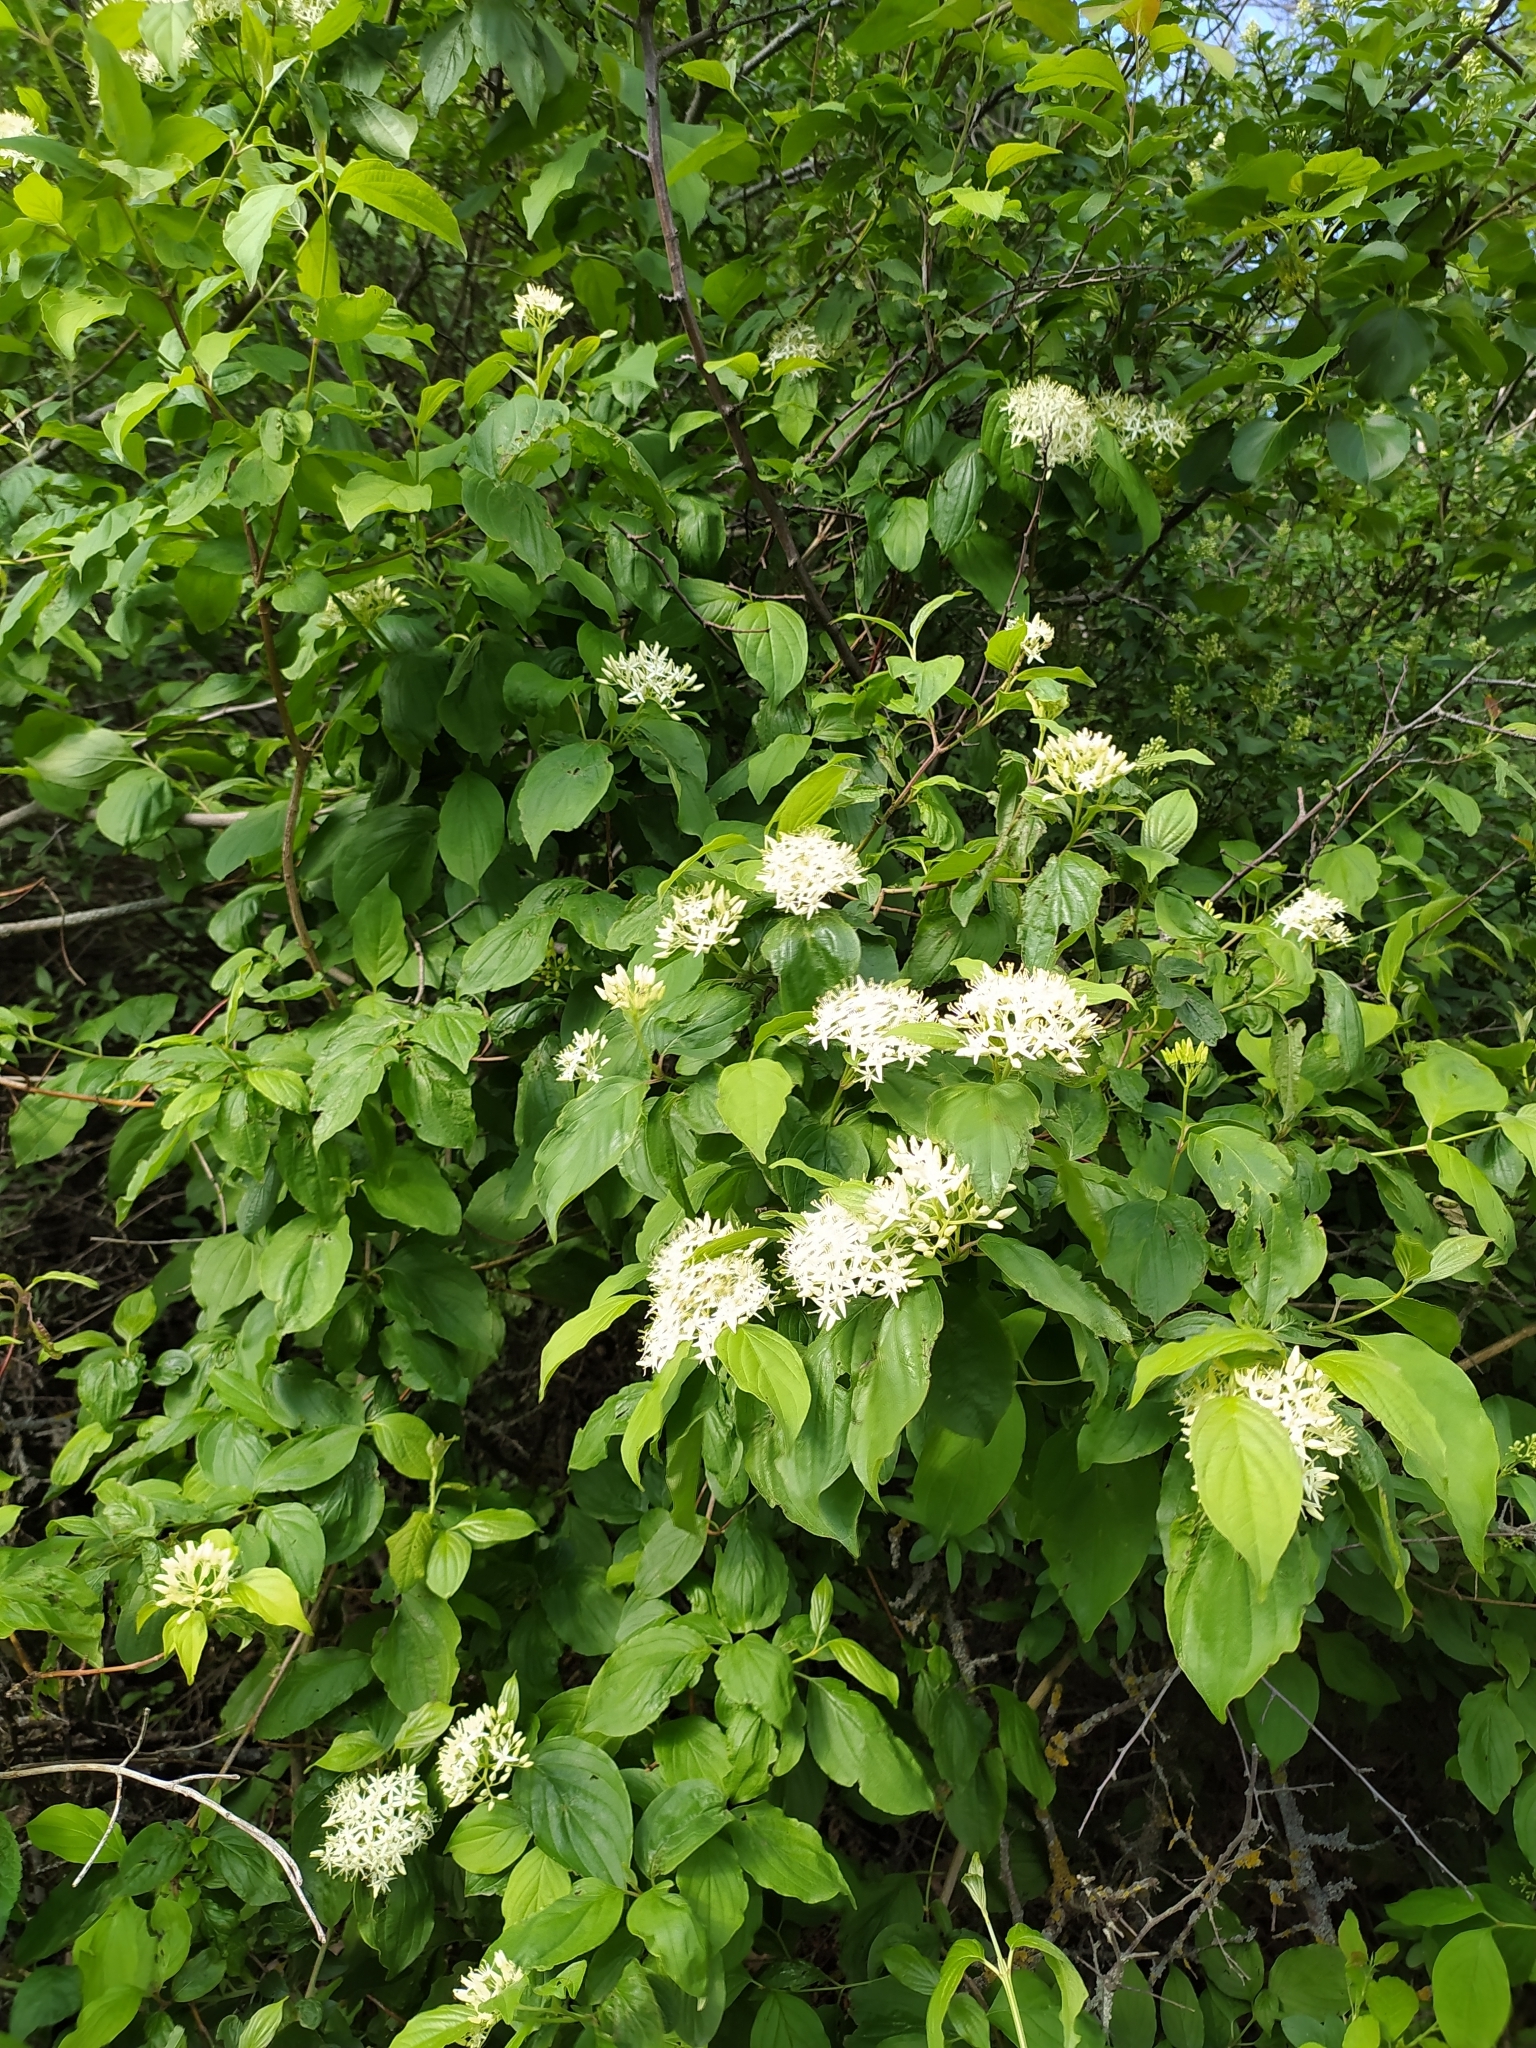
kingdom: Plantae
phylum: Tracheophyta
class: Magnoliopsida
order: Cornales
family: Cornaceae
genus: Cornus
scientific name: Cornus sanguinea
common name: Dogwood
